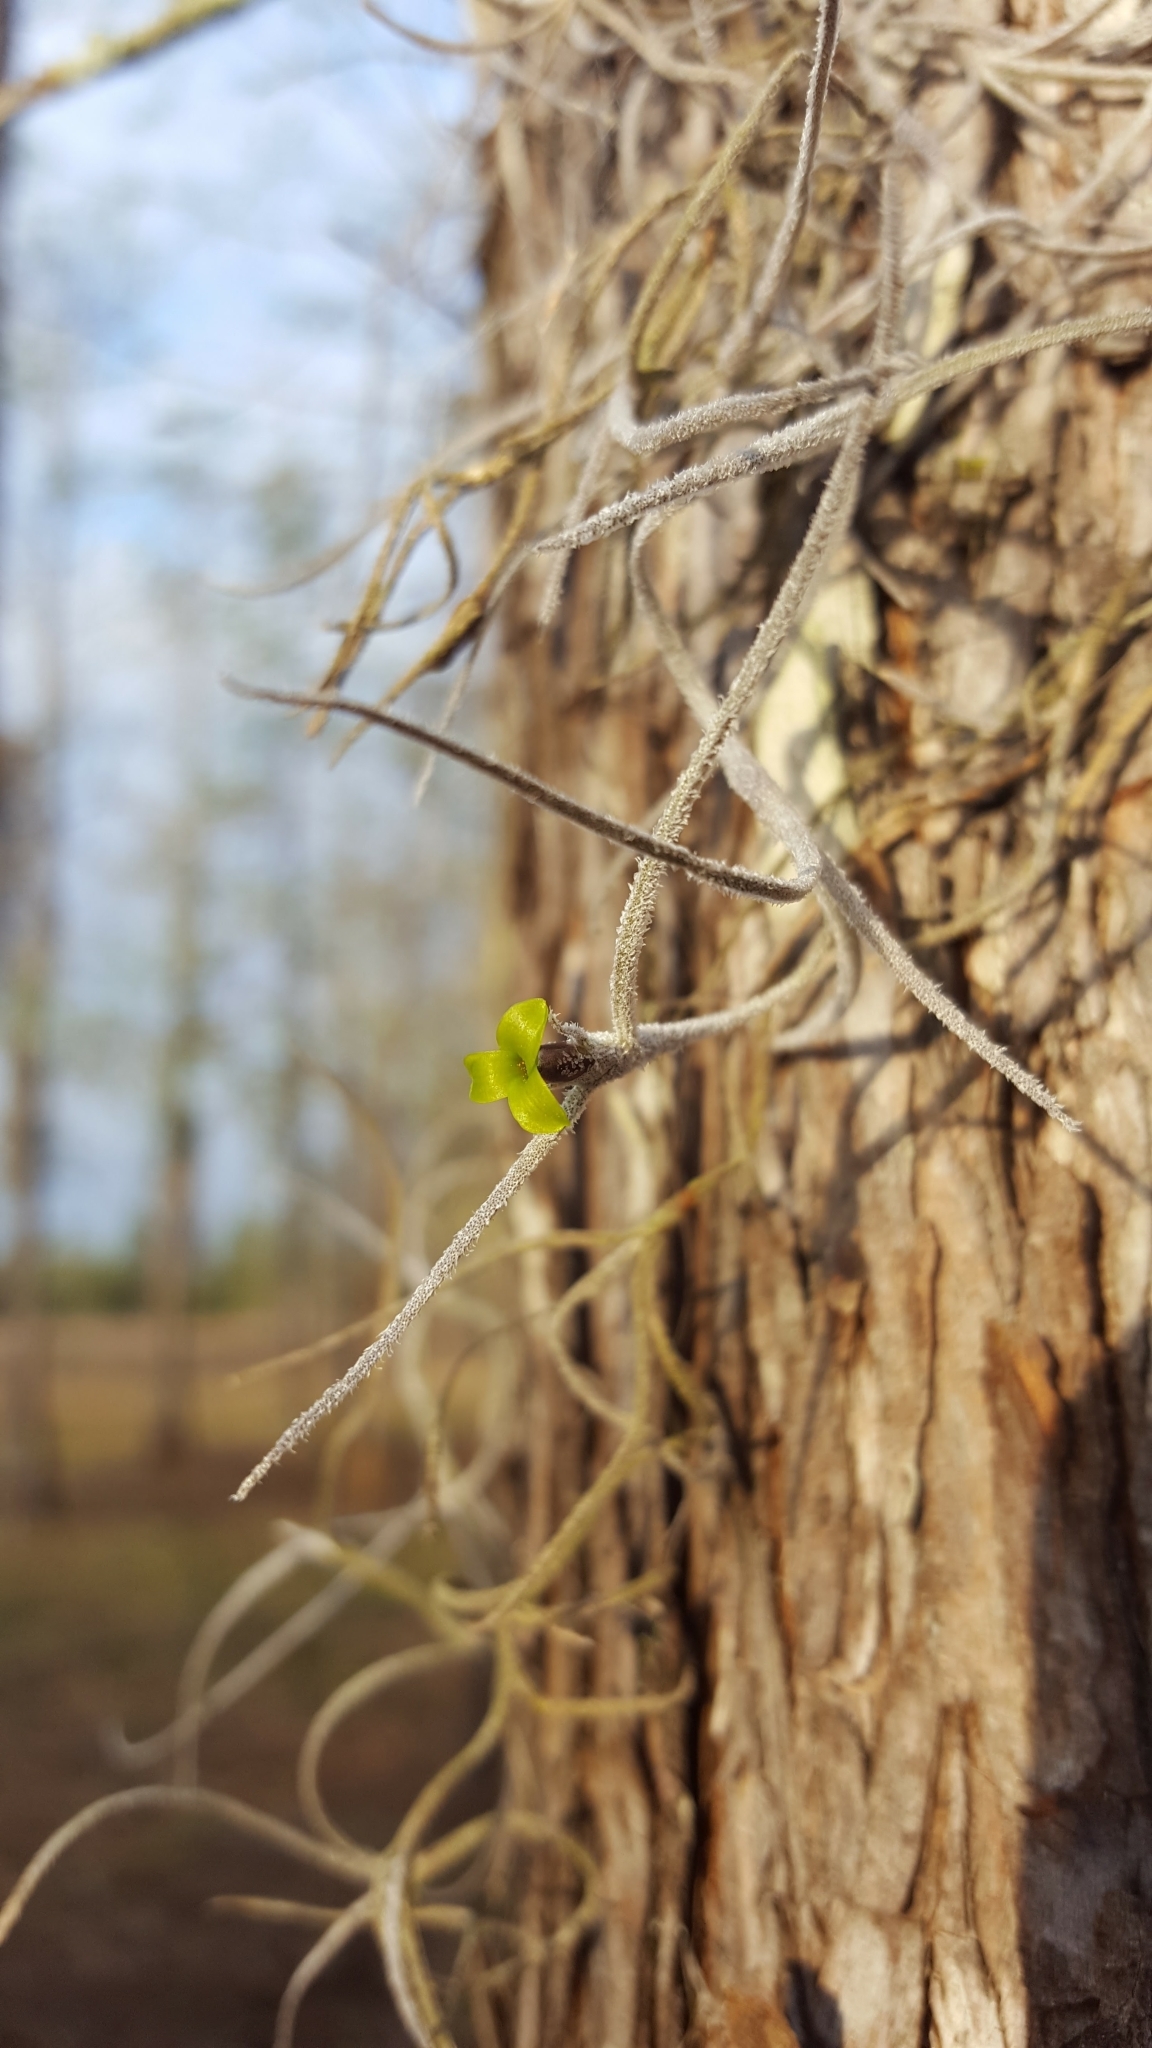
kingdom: Plantae
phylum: Tracheophyta
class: Liliopsida
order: Poales
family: Bromeliaceae
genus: Tillandsia
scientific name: Tillandsia usneoides
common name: Spanish moss
